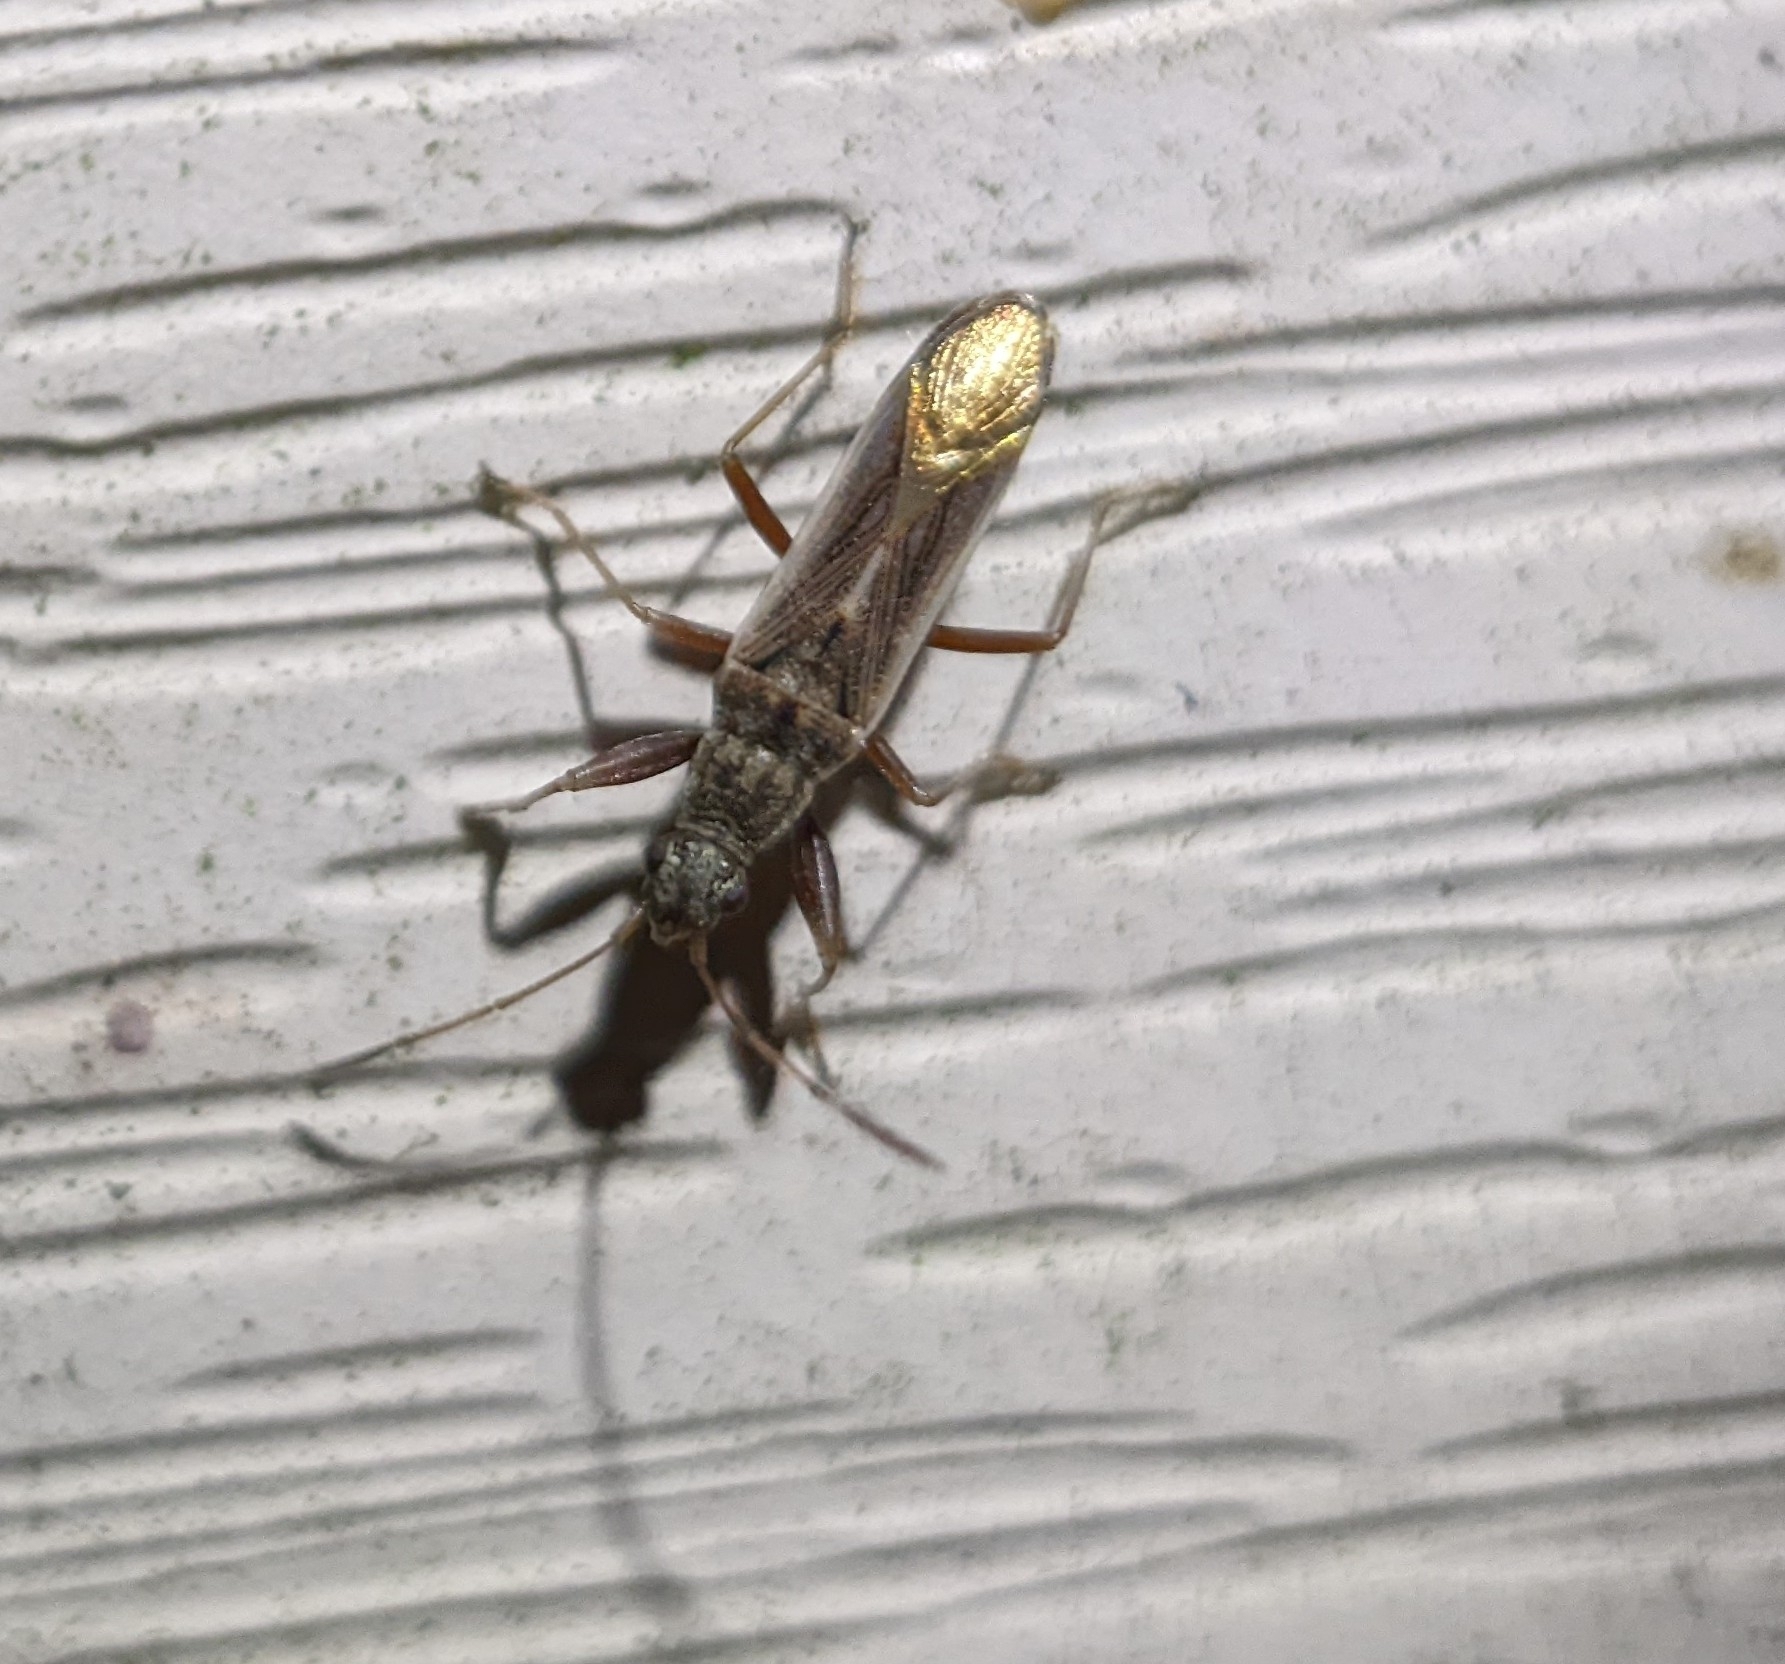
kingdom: Animalia
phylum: Arthropoda
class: Insecta
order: Hemiptera
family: Rhyparochromidae
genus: Paromius
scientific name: Paromius longulus
